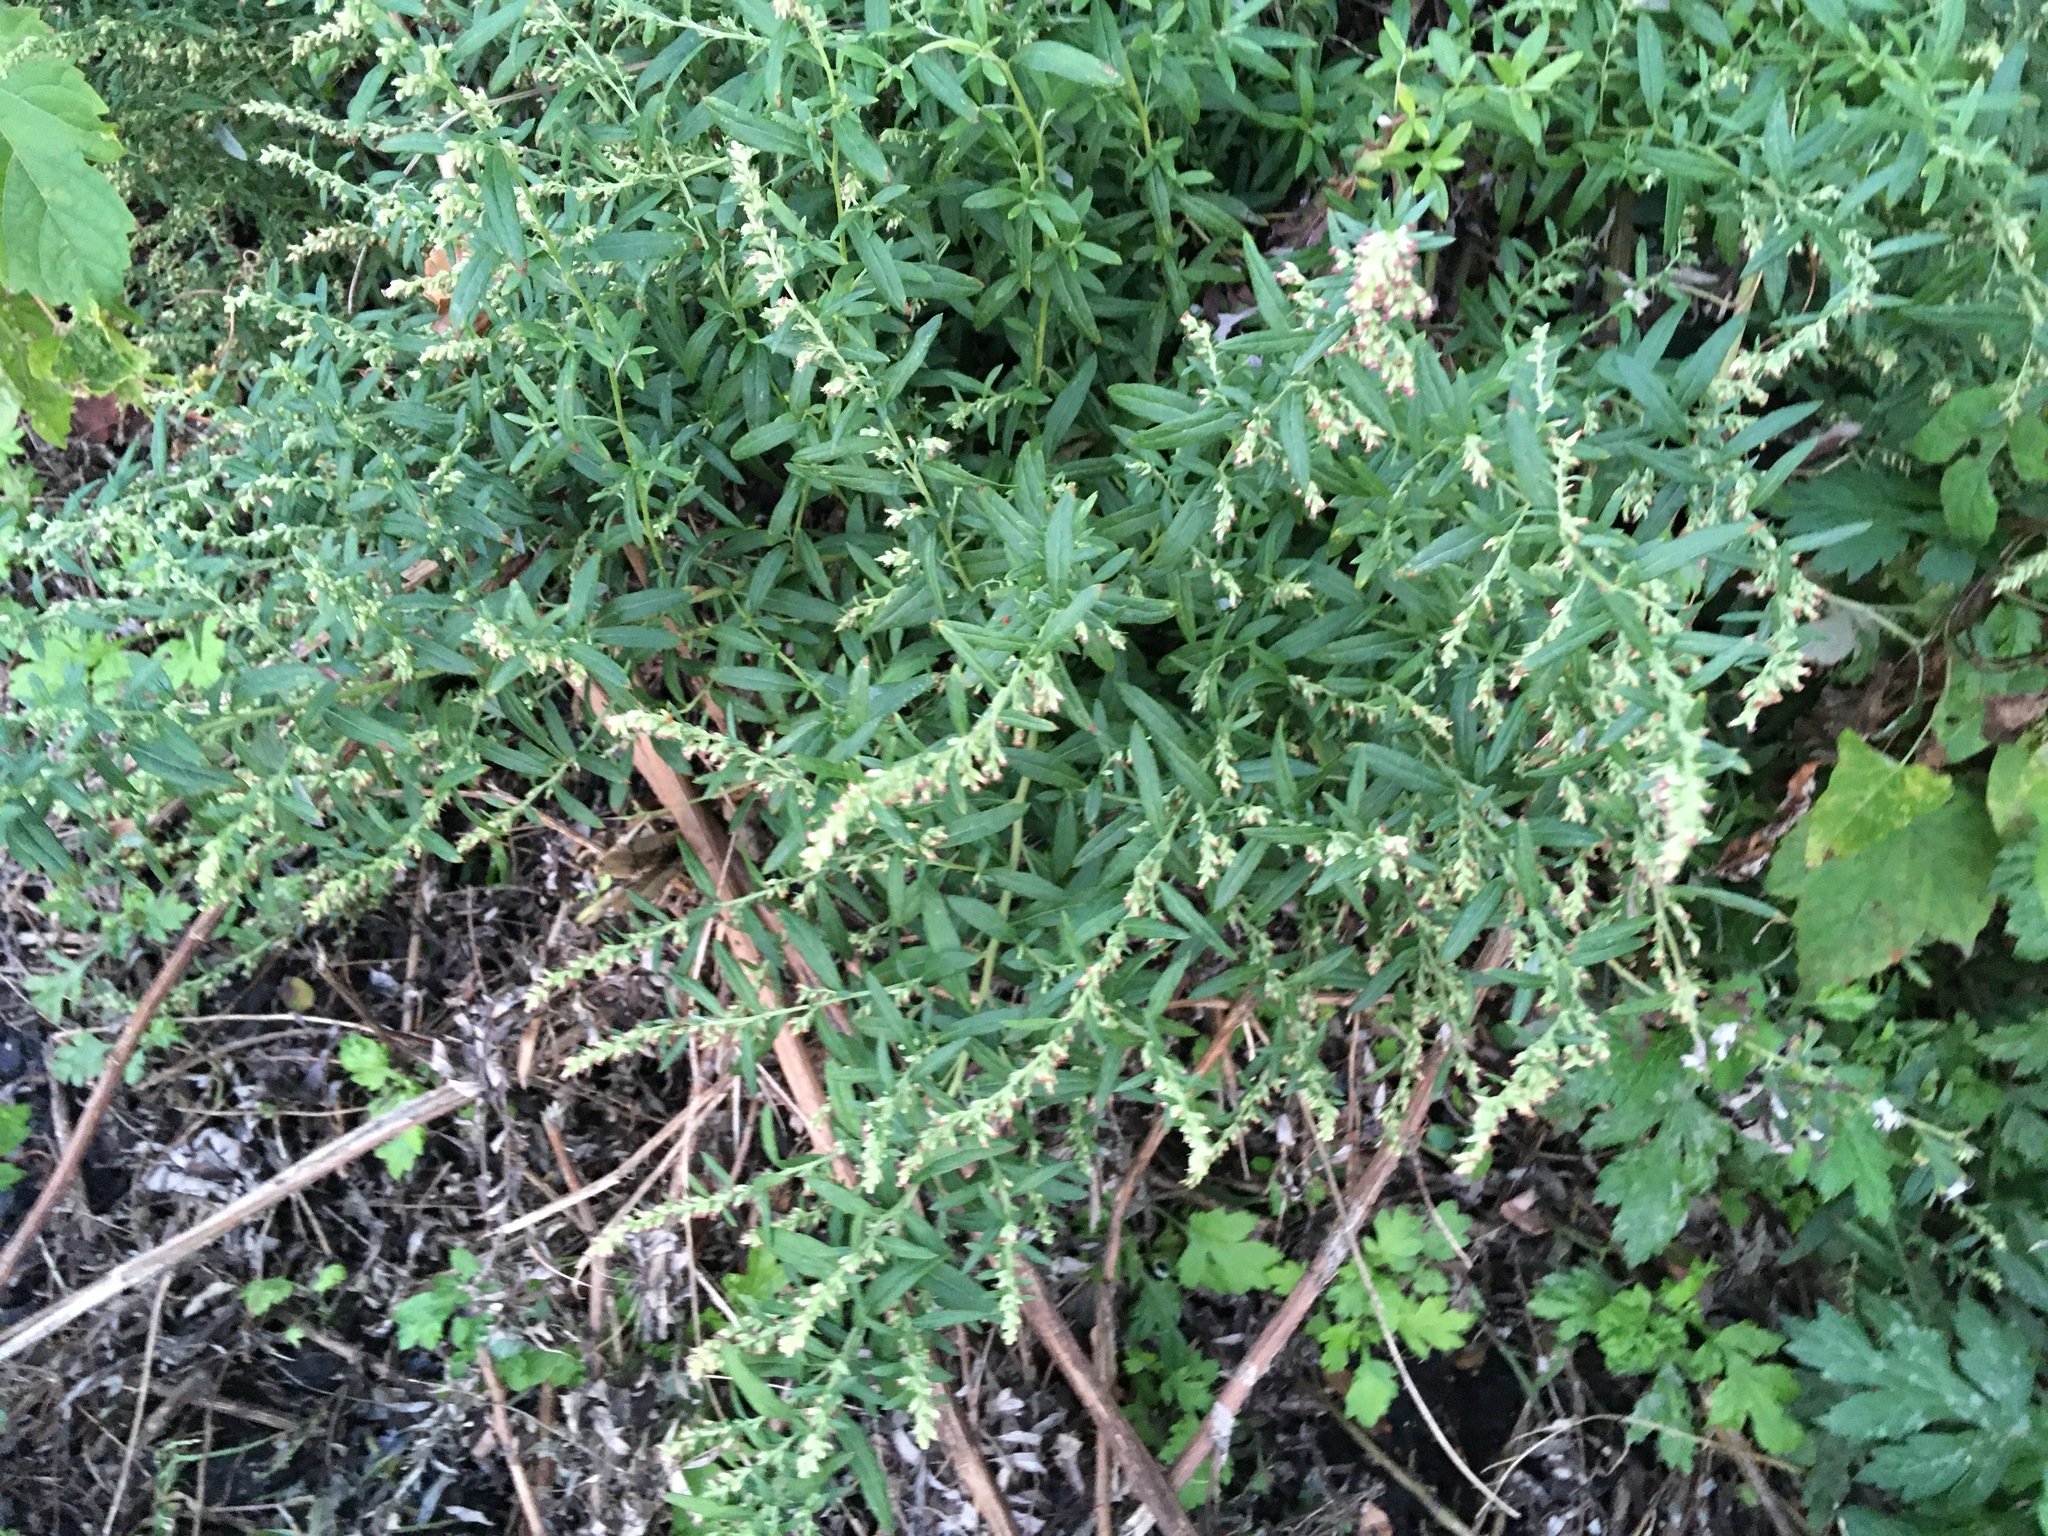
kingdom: Plantae
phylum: Tracheophyta
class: Magnoliopsida
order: Asterales
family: Asteraceae
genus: Artemisia
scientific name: Artemisia vulgaris
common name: Mugwort
